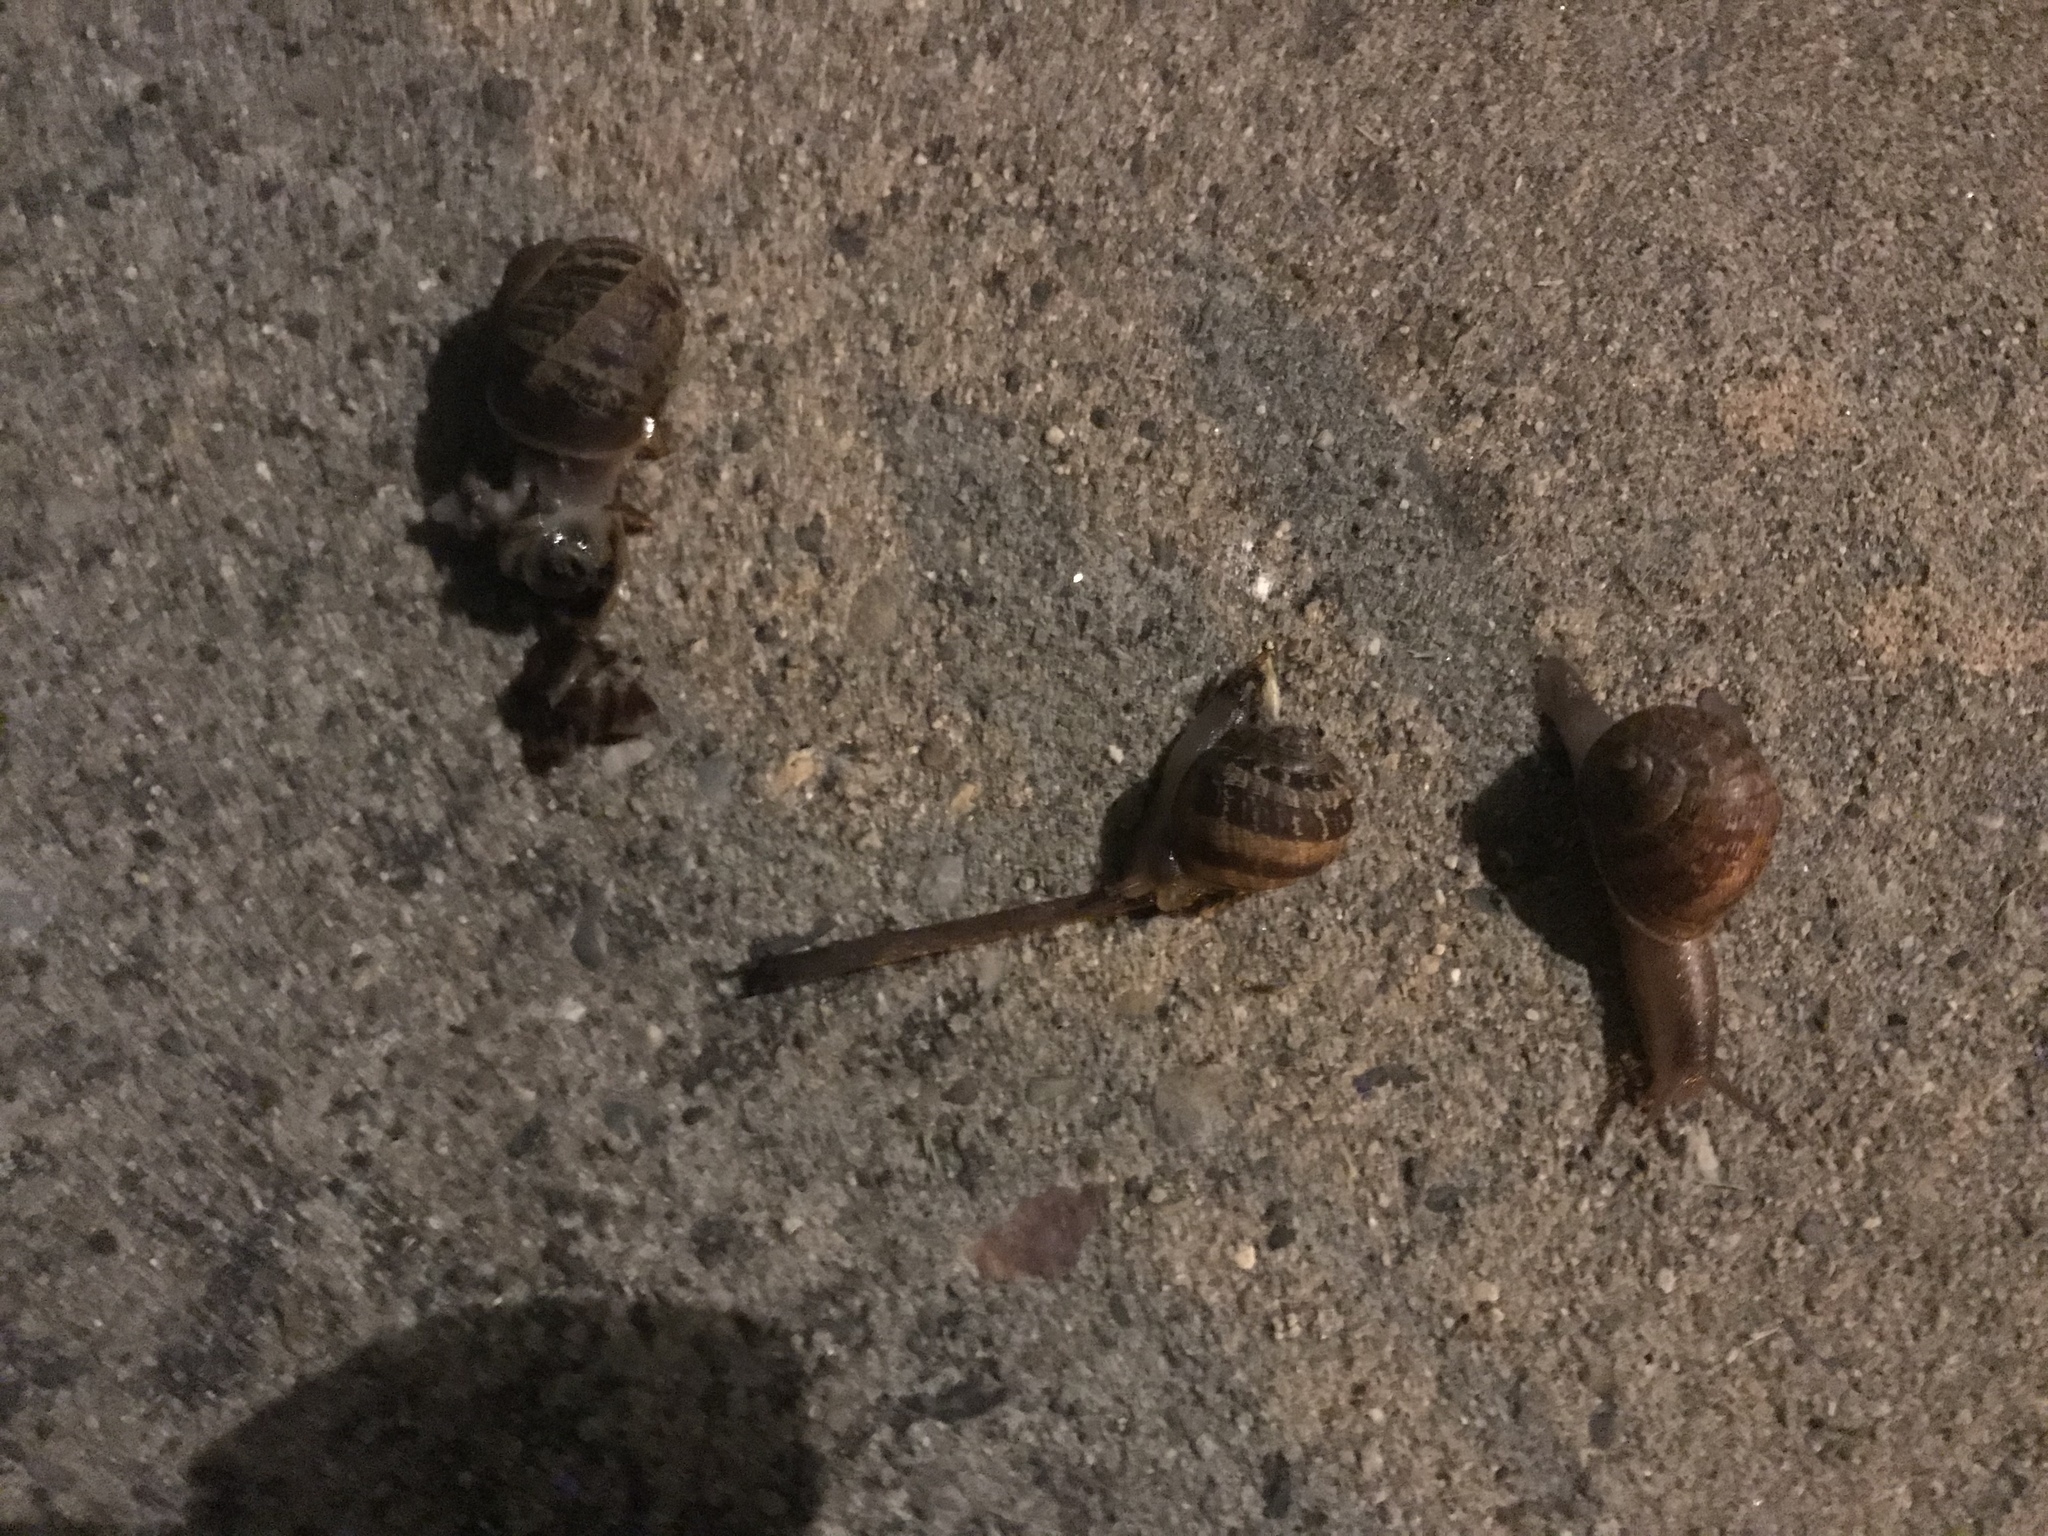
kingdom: Animalia
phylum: Mollusca
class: Gastropoda
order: Stylommatophora
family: Helicidae
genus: Cornu
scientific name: Cornu aspersum
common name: Brown garden snail
